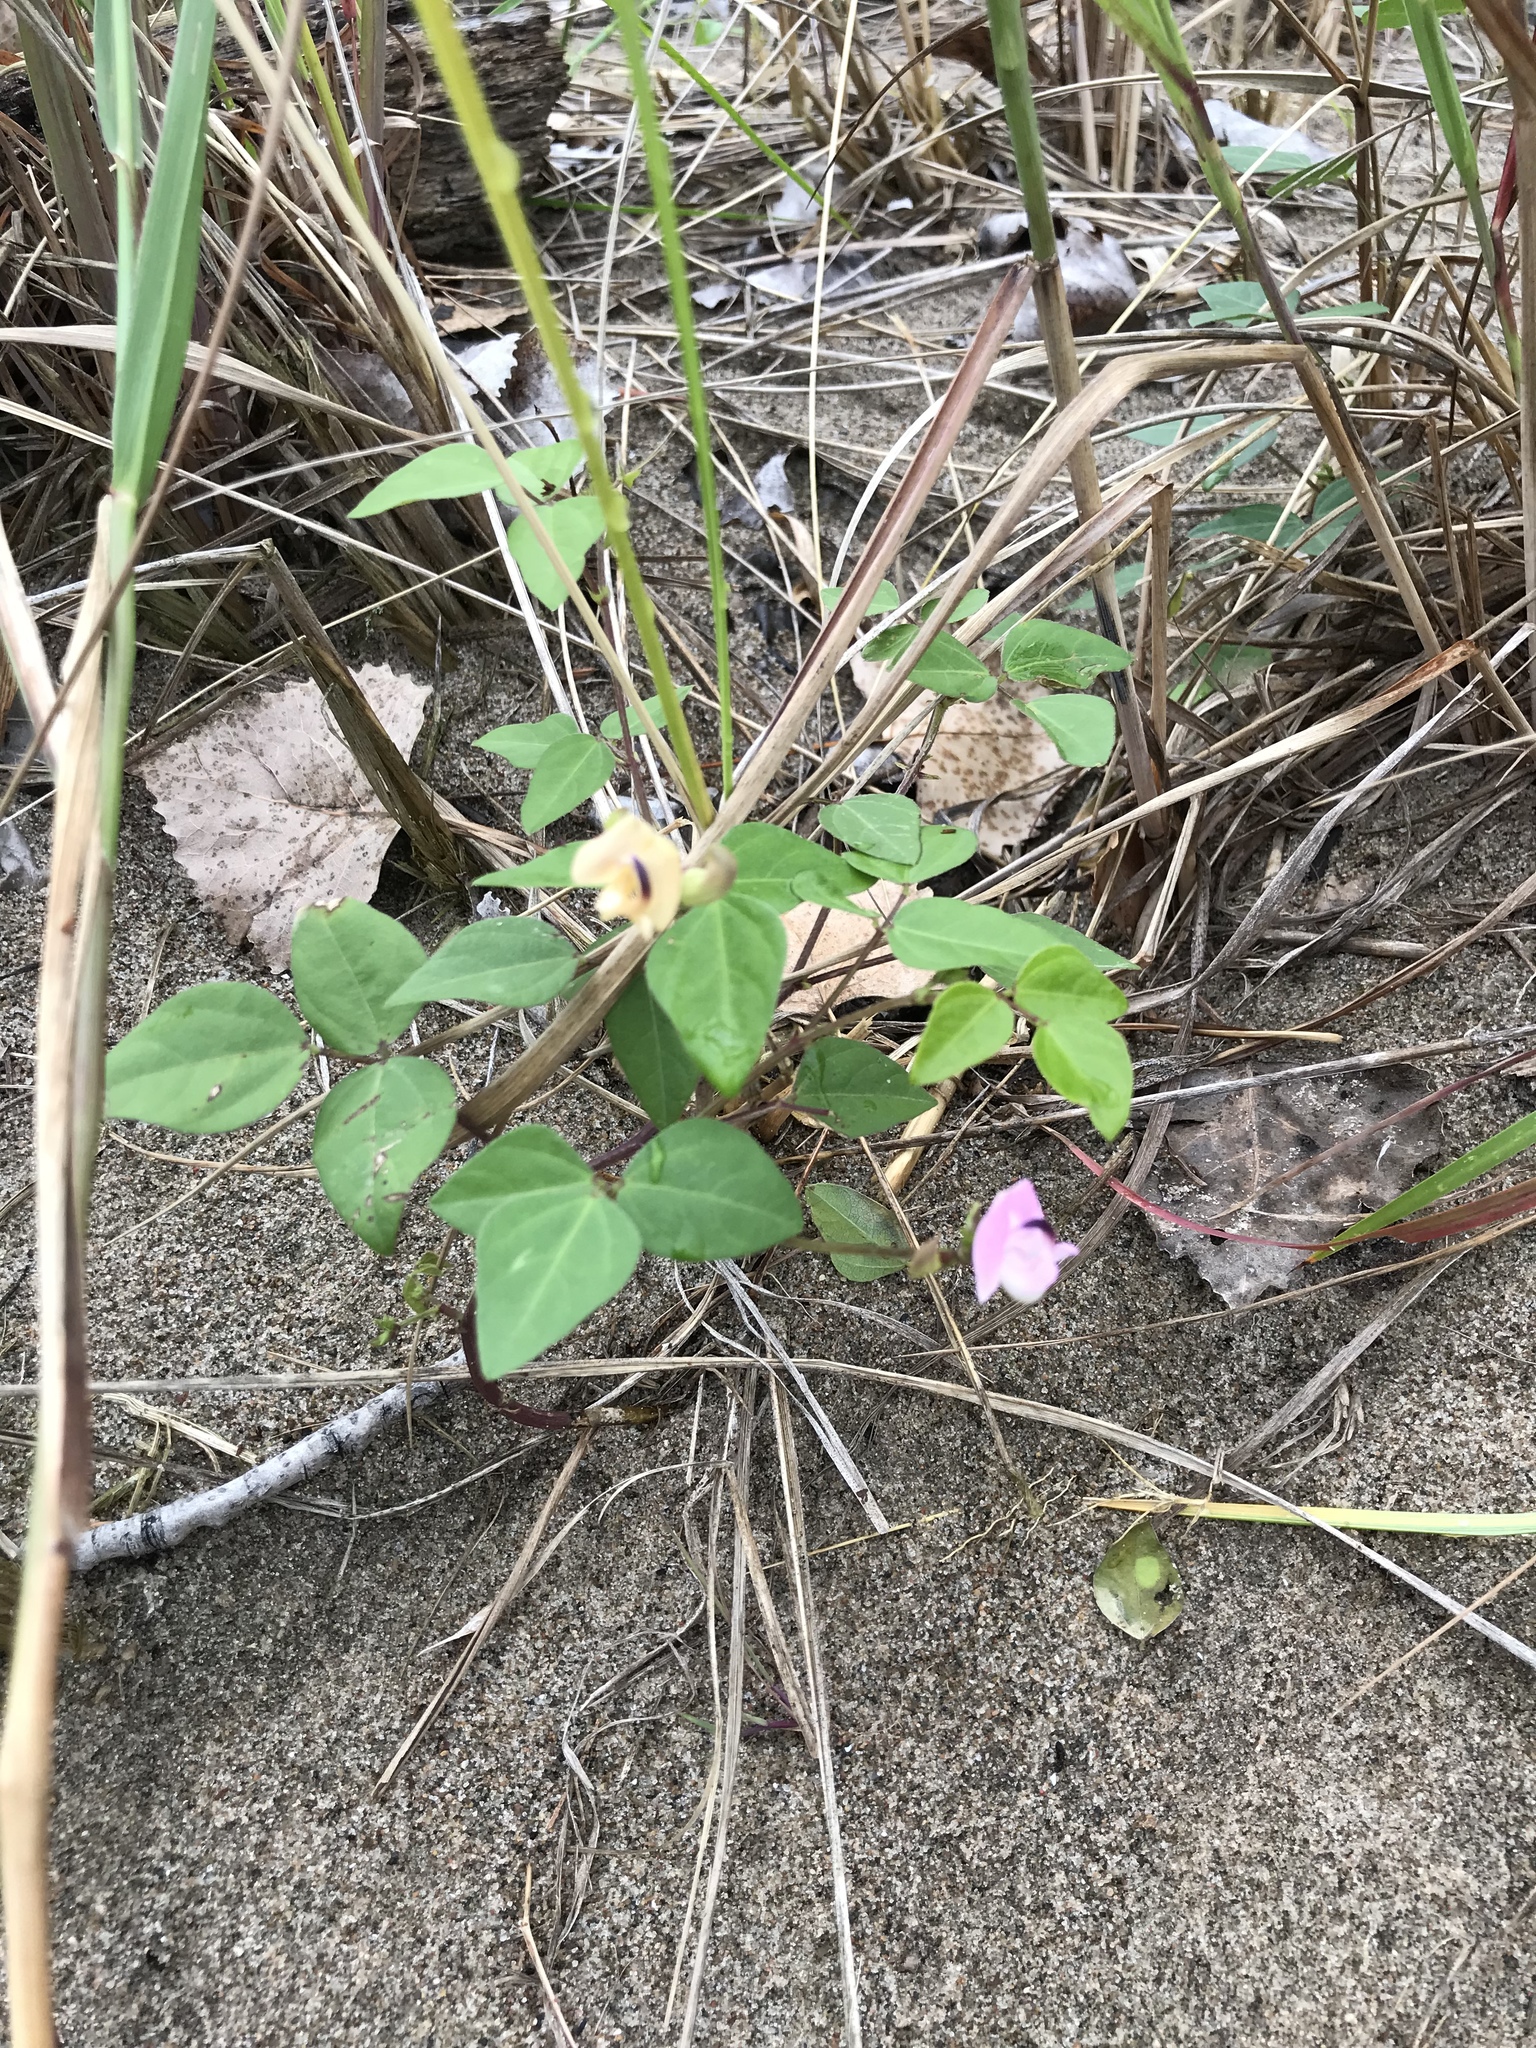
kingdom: Plantae
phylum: Tracheophyta
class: Magnoliopsida
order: Fabales
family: Fabaceae
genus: Strophostyles
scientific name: Strophostyles helvola
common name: Trailing wild bean
